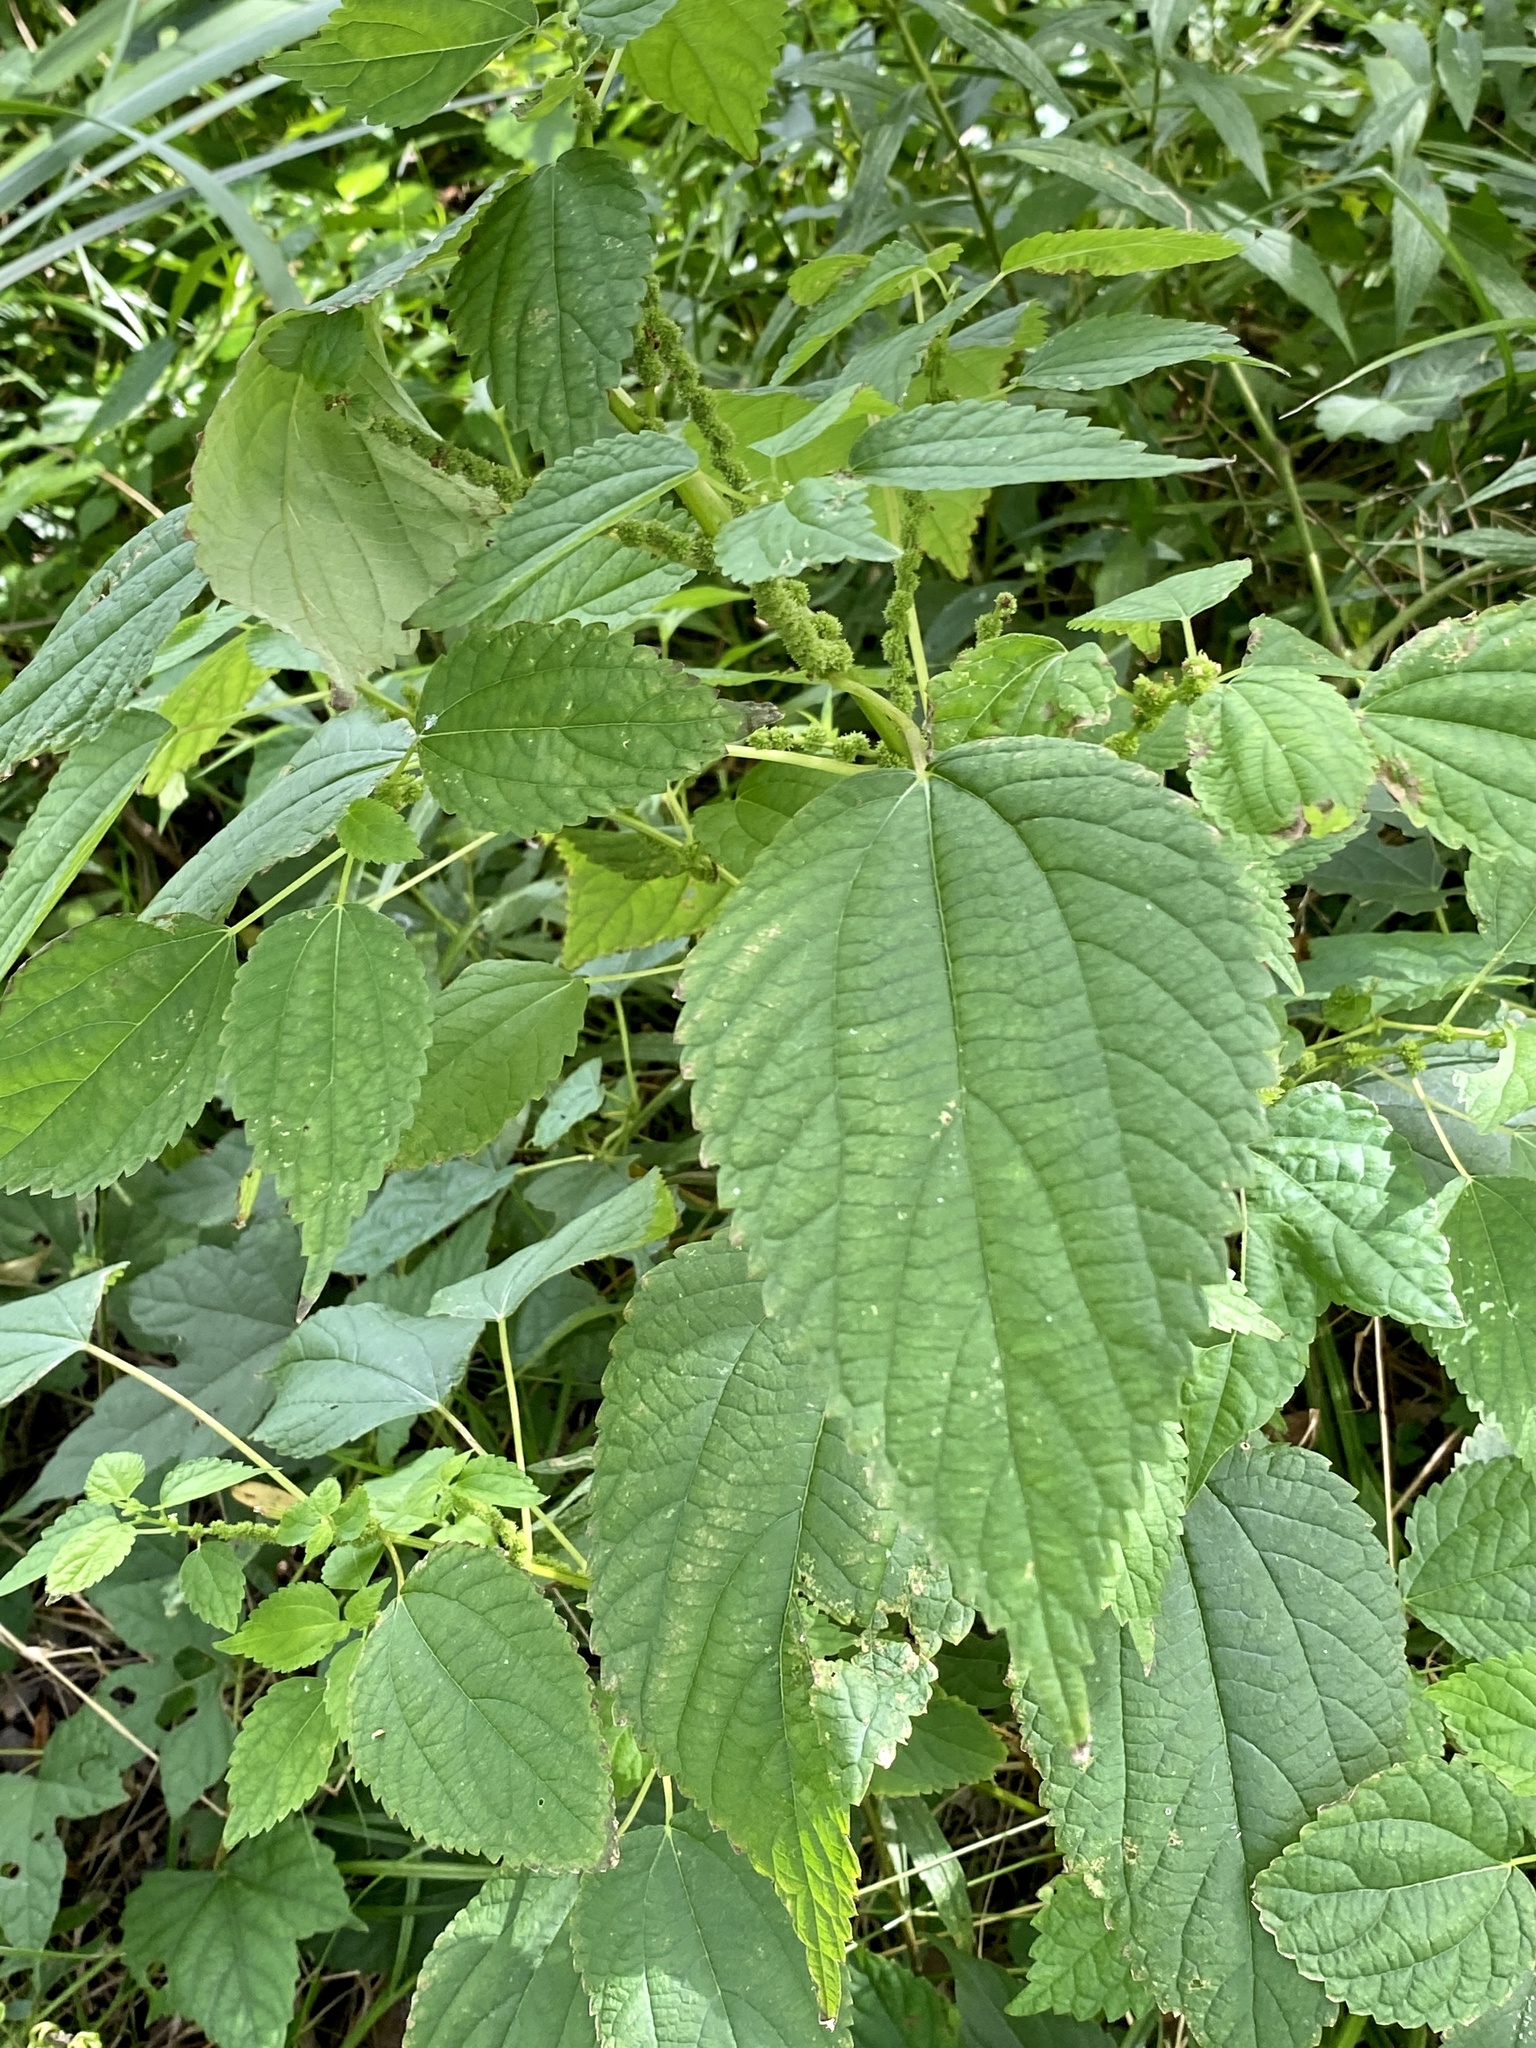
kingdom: Plantae
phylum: Tracheophyta
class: Magnoliopsida
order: Rosales
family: Urticaceae
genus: Boehmeria
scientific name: Boehmeria cylindrica
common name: Bog-hemp
